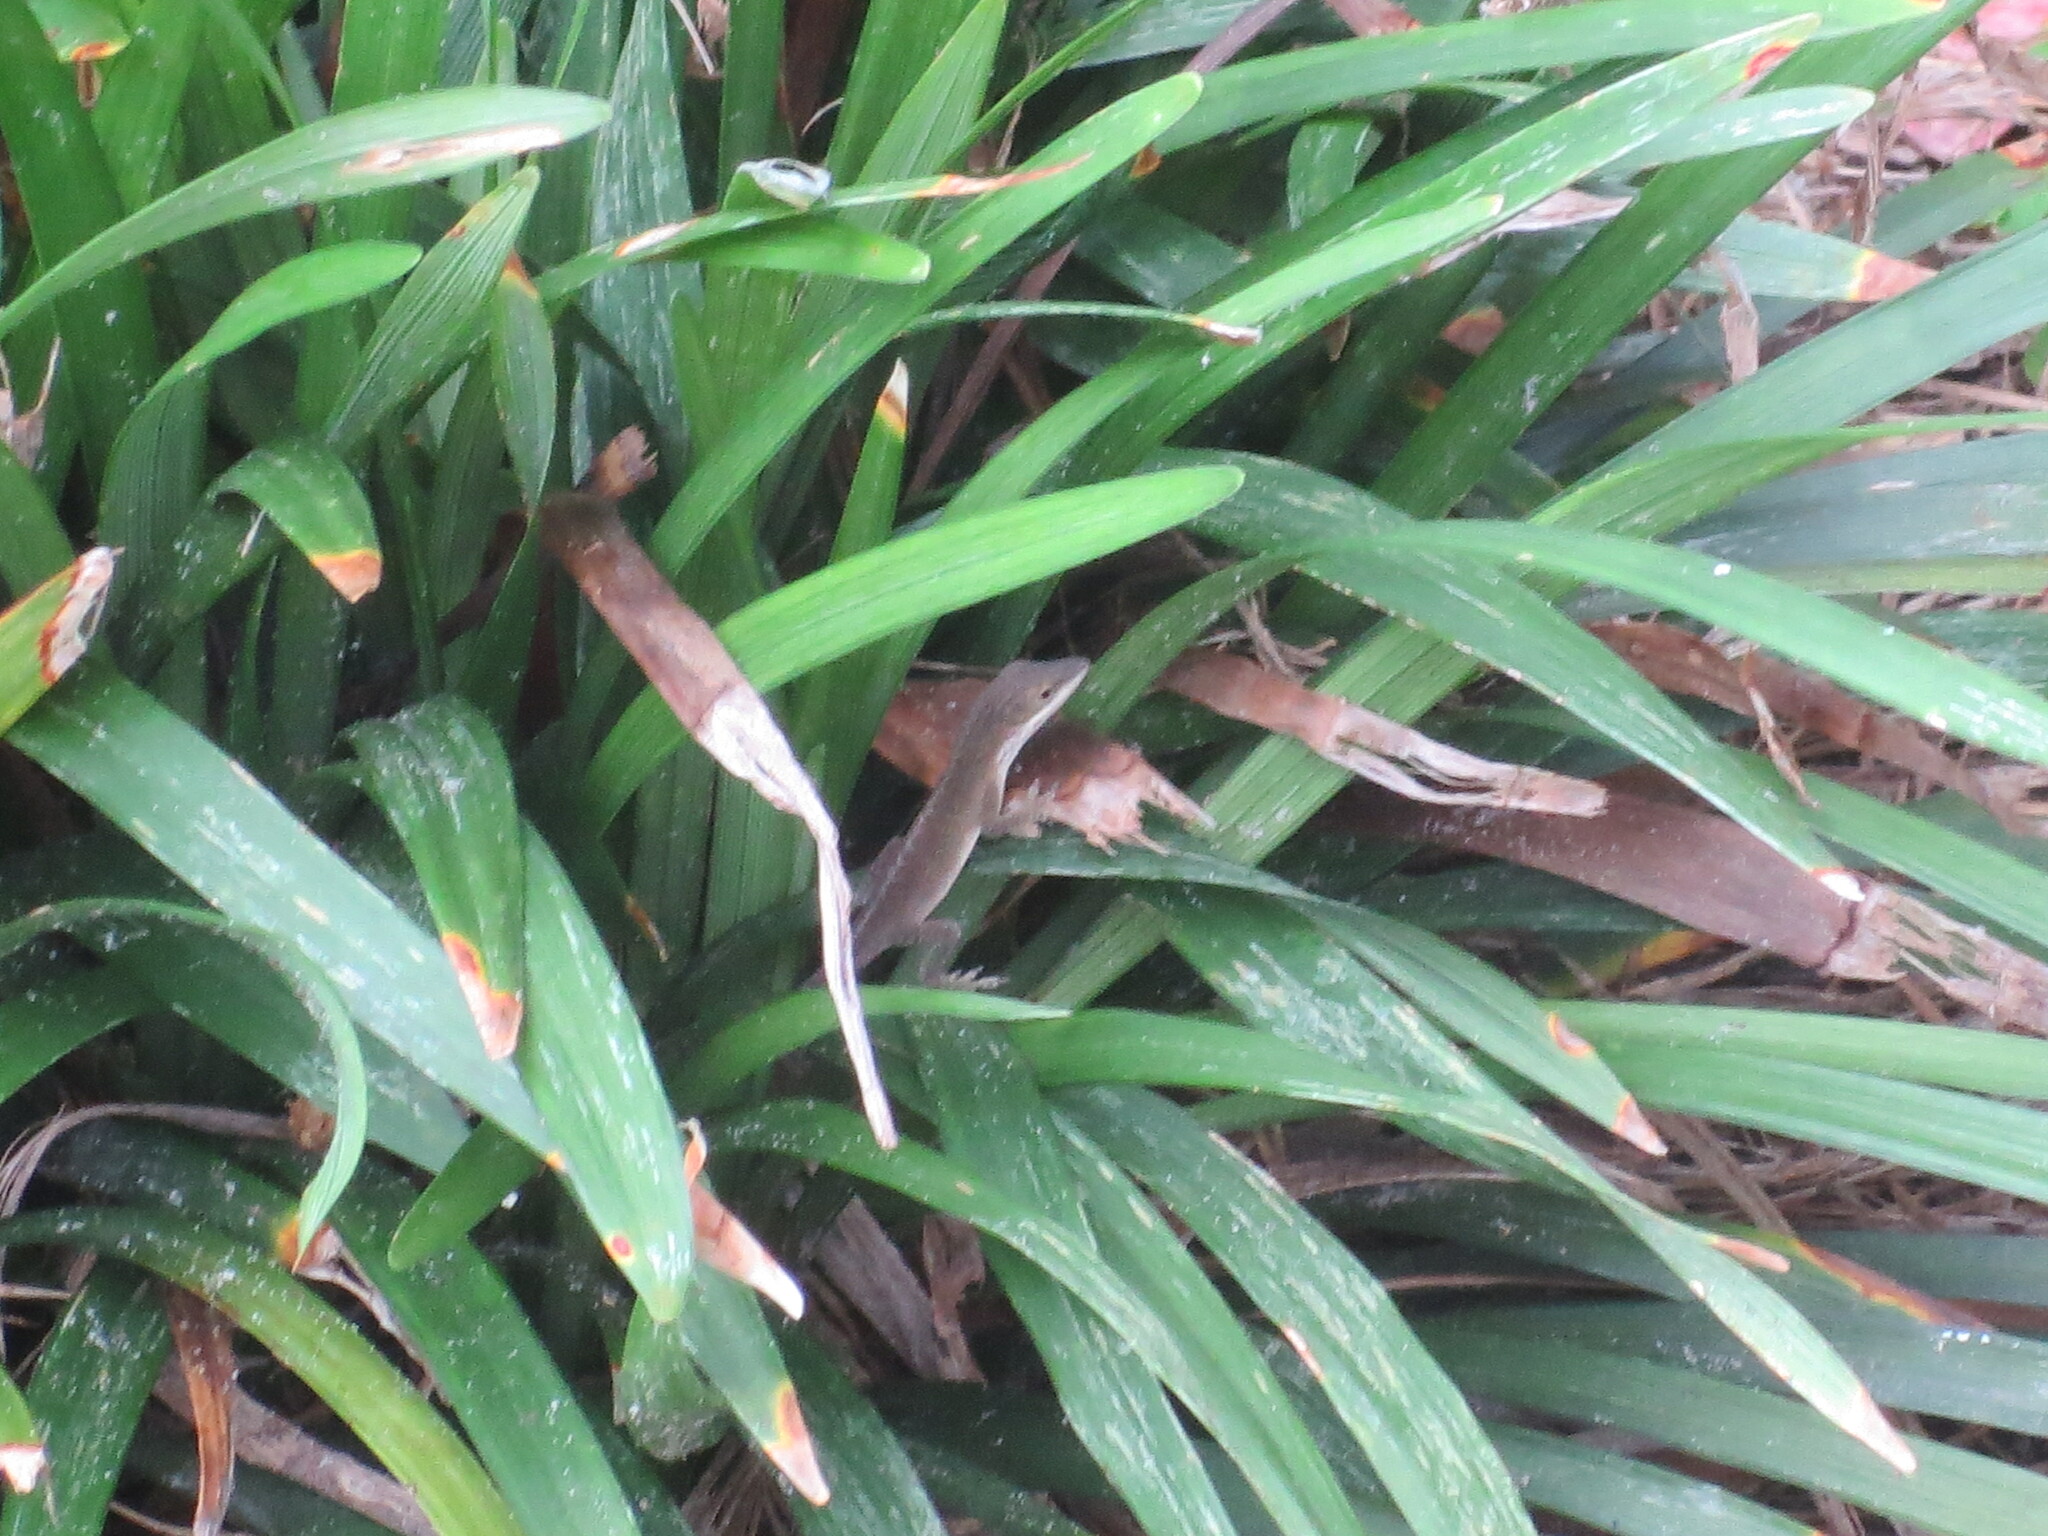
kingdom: Animalia
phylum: Chordata
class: Squamata
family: Dactyloidae
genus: Anolis
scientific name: Anolis carolinensis
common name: Green anole
